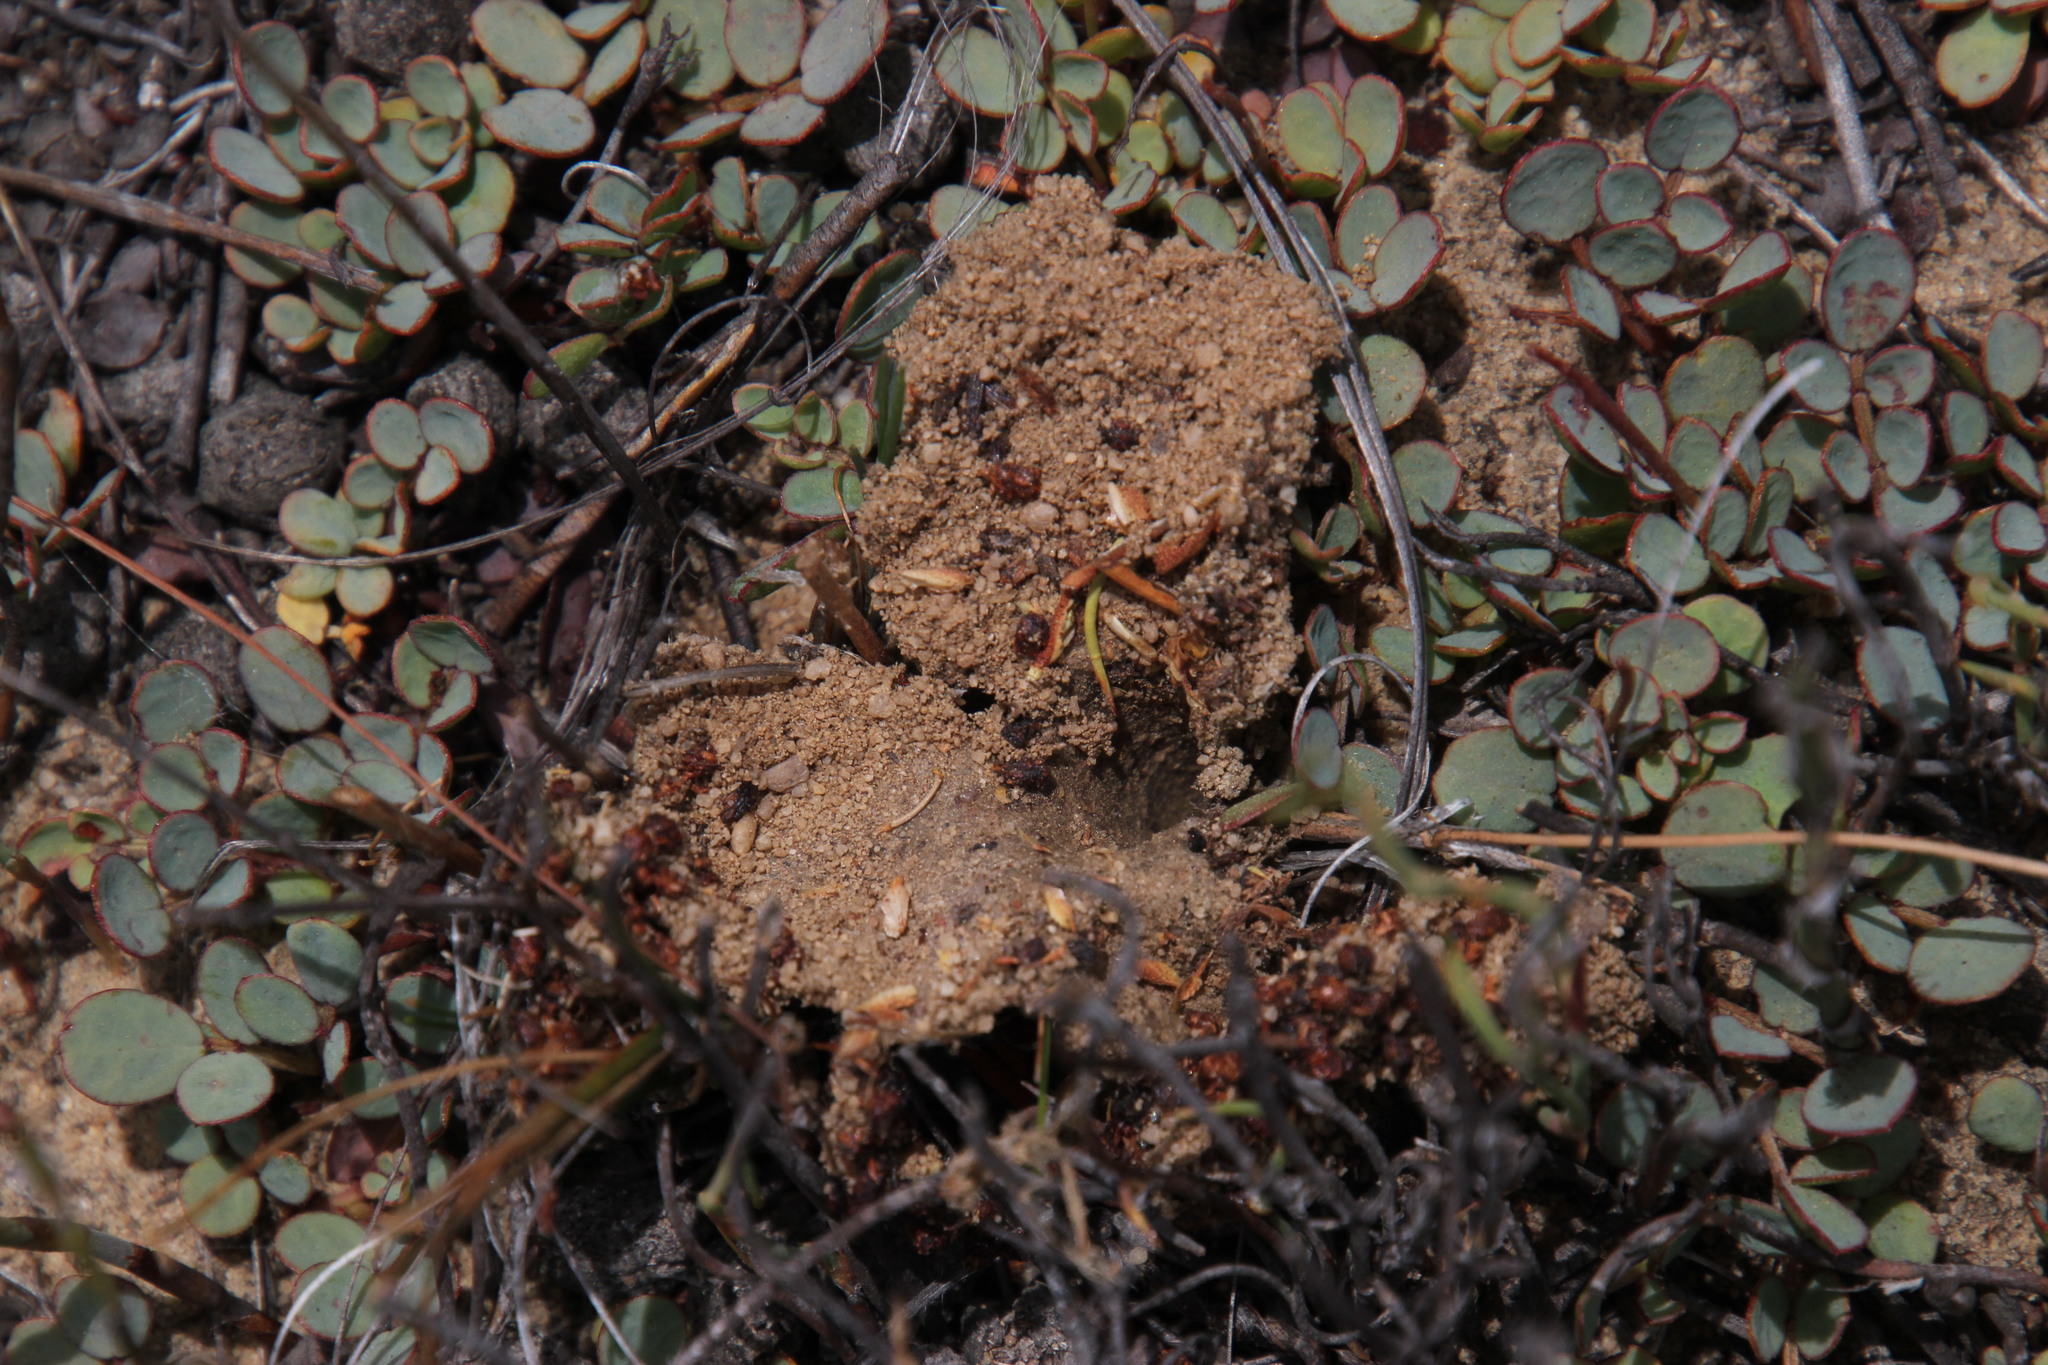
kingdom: Plantae
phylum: Tracheophyta
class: Magnoliopsida
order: Fabales
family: Fabaceae
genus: Indigofera
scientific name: Indigofera humifusa
